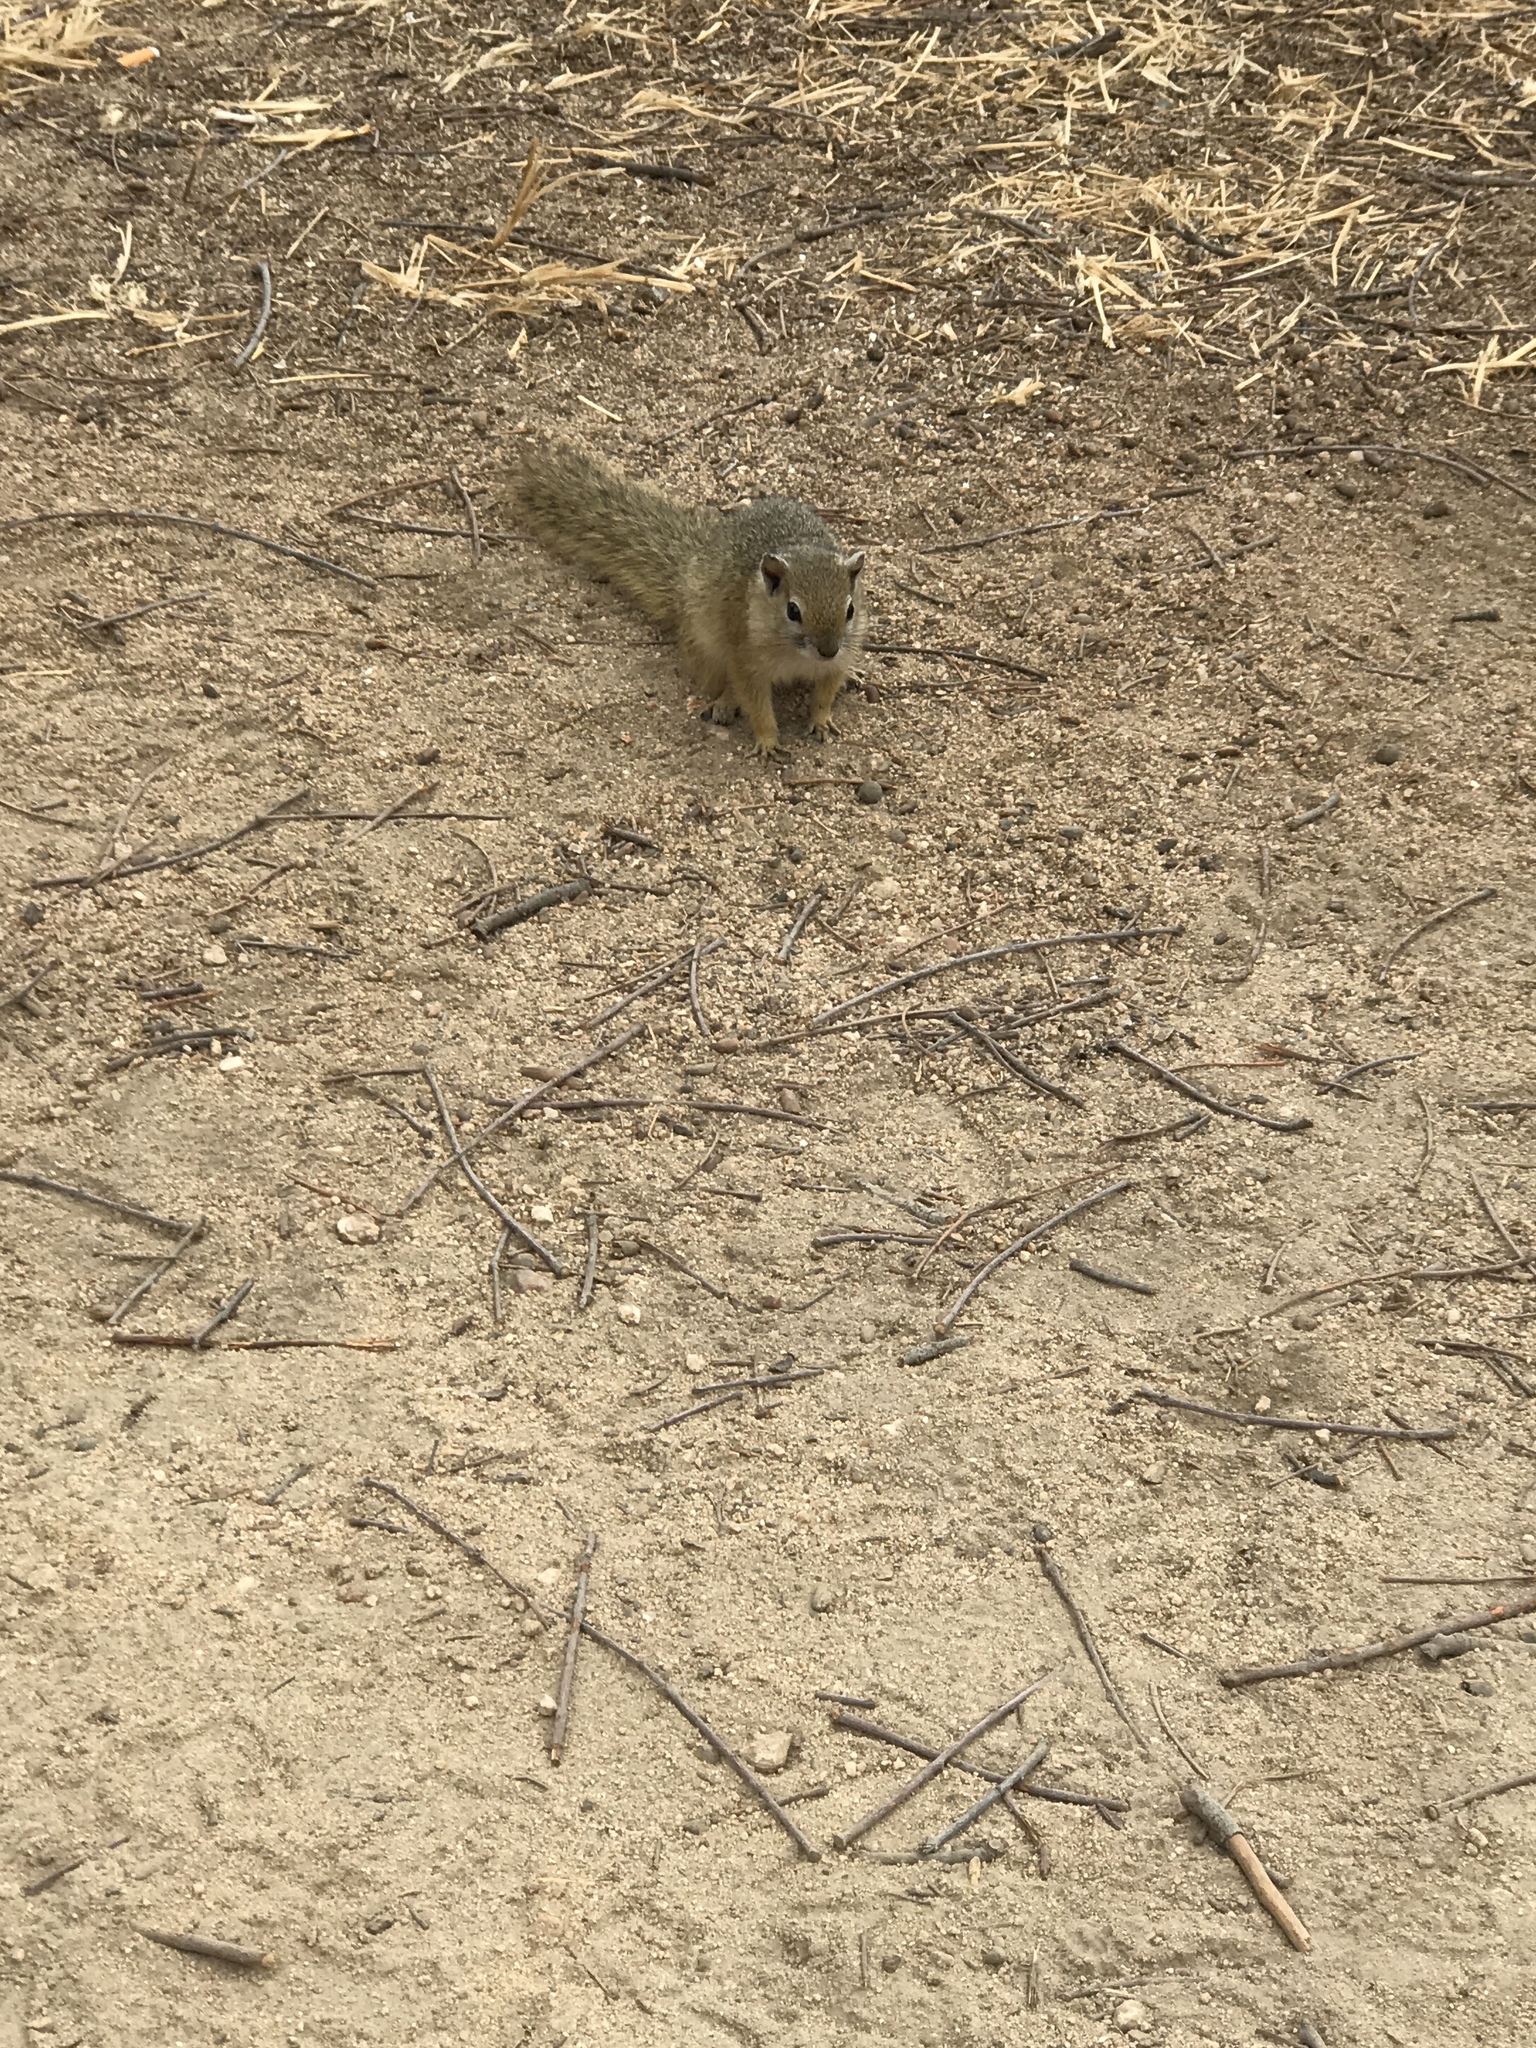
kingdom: Animalia
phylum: Chordata
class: Mammalia
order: Rodentia
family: Sciuridae
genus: Paraxerus
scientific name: Paraxerus cepapi
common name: Smith's bush squirrel
